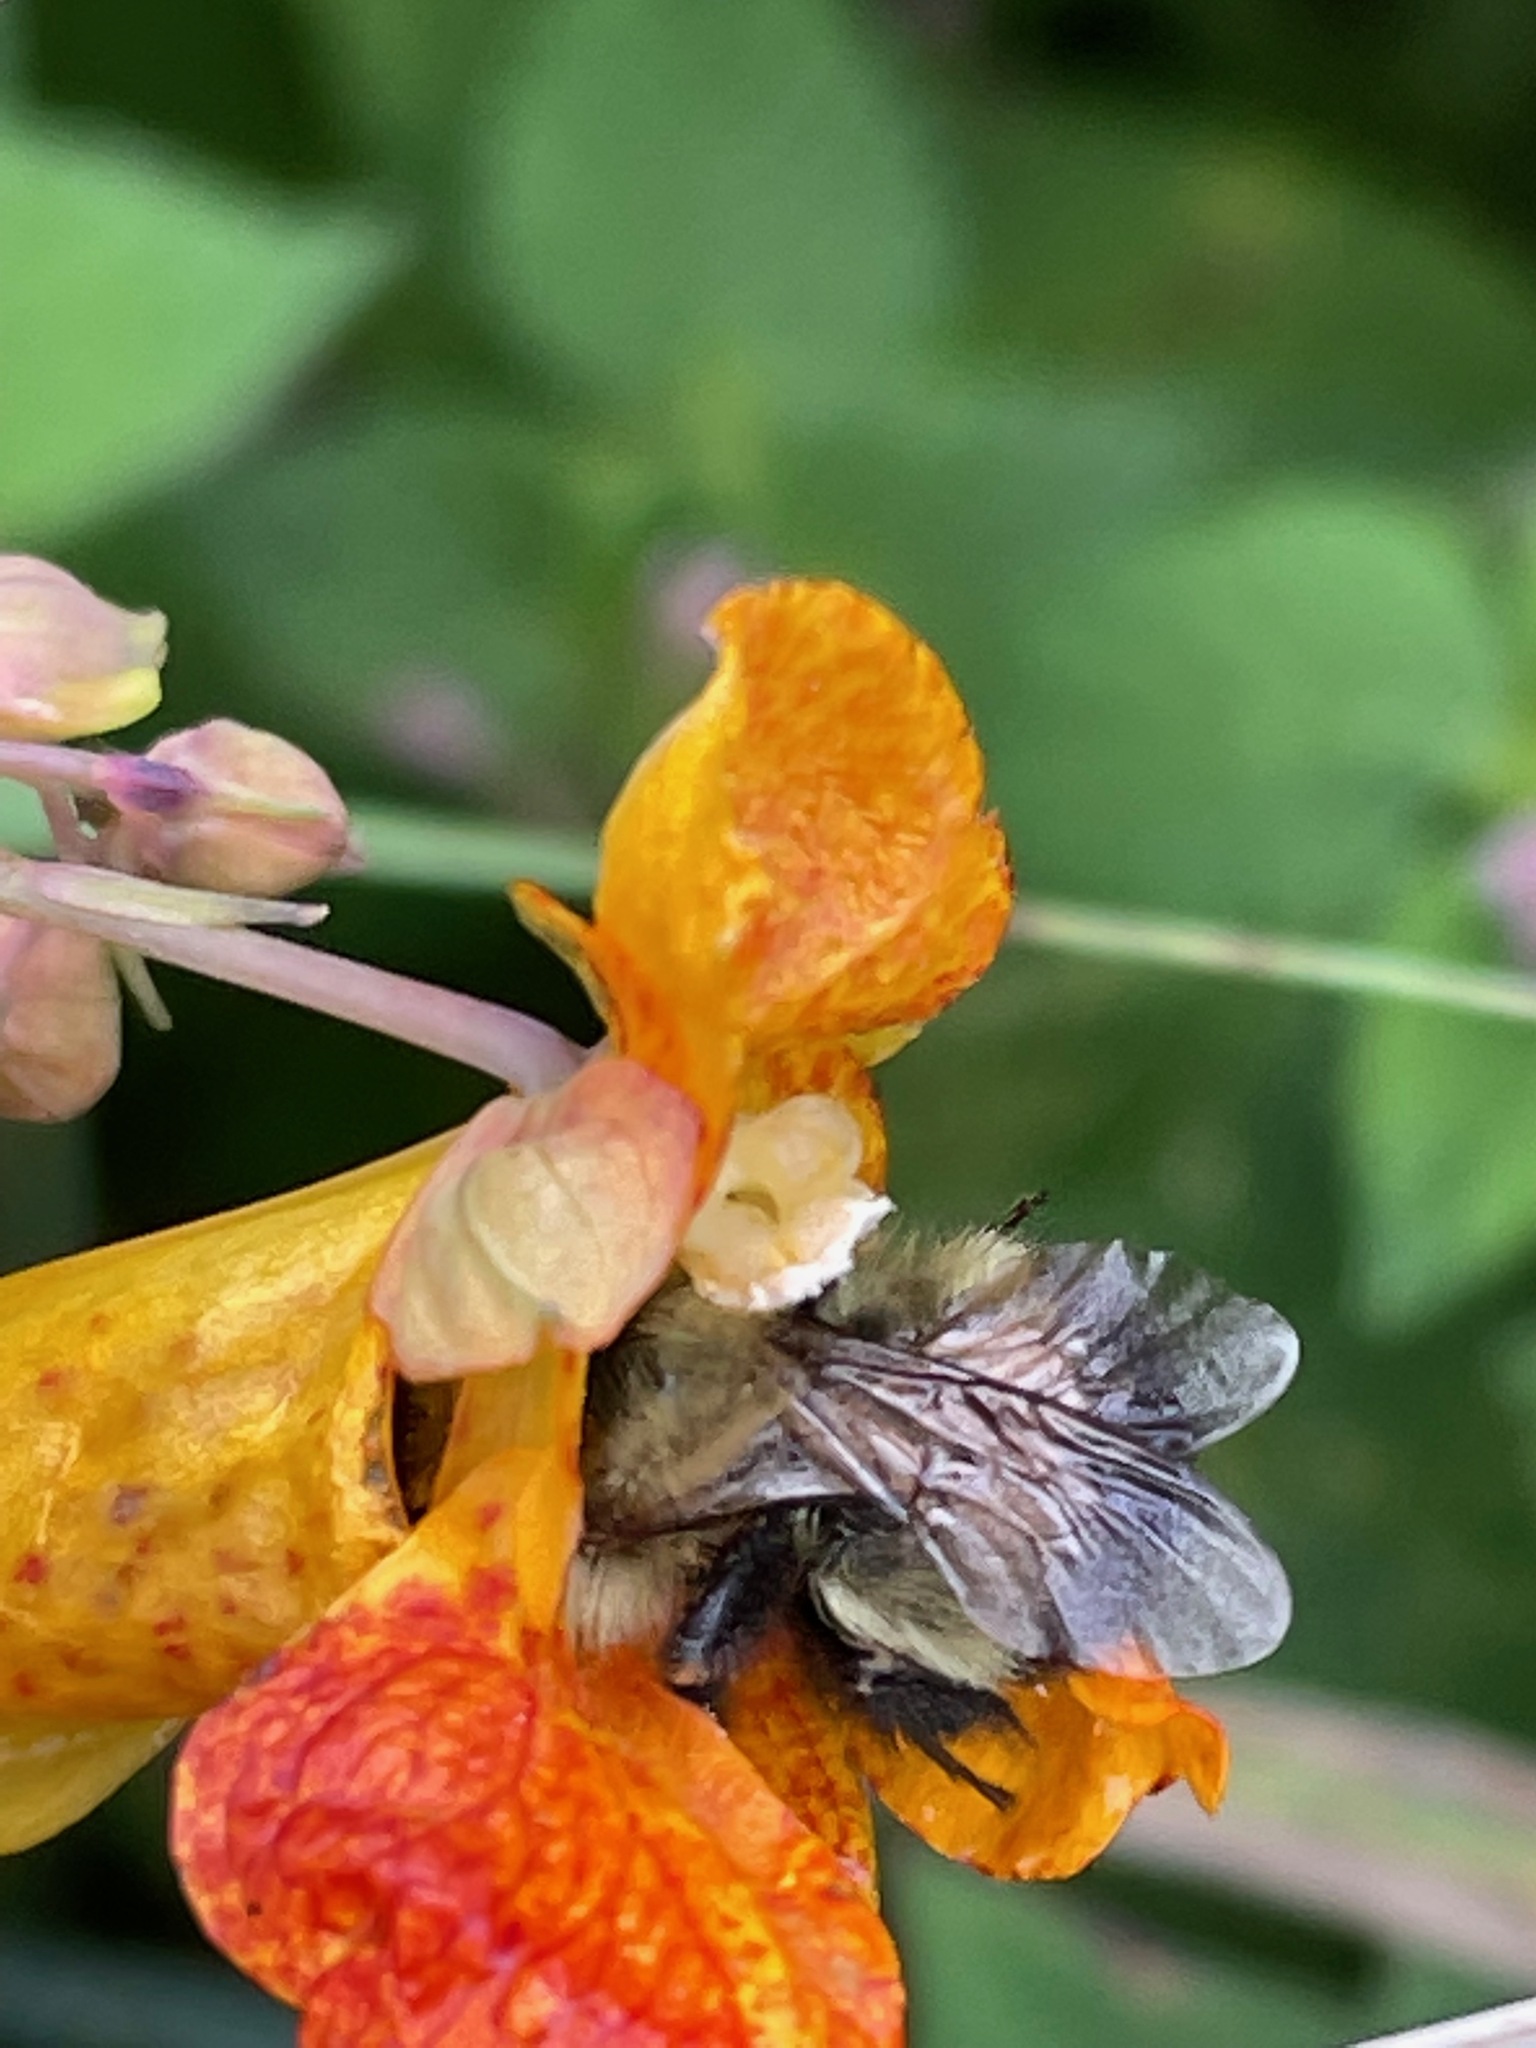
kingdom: Animalia
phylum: Arthropoda
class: Insecta
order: Hymenoptera
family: Apidae
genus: Pyrobombus
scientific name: Pyrobombus
